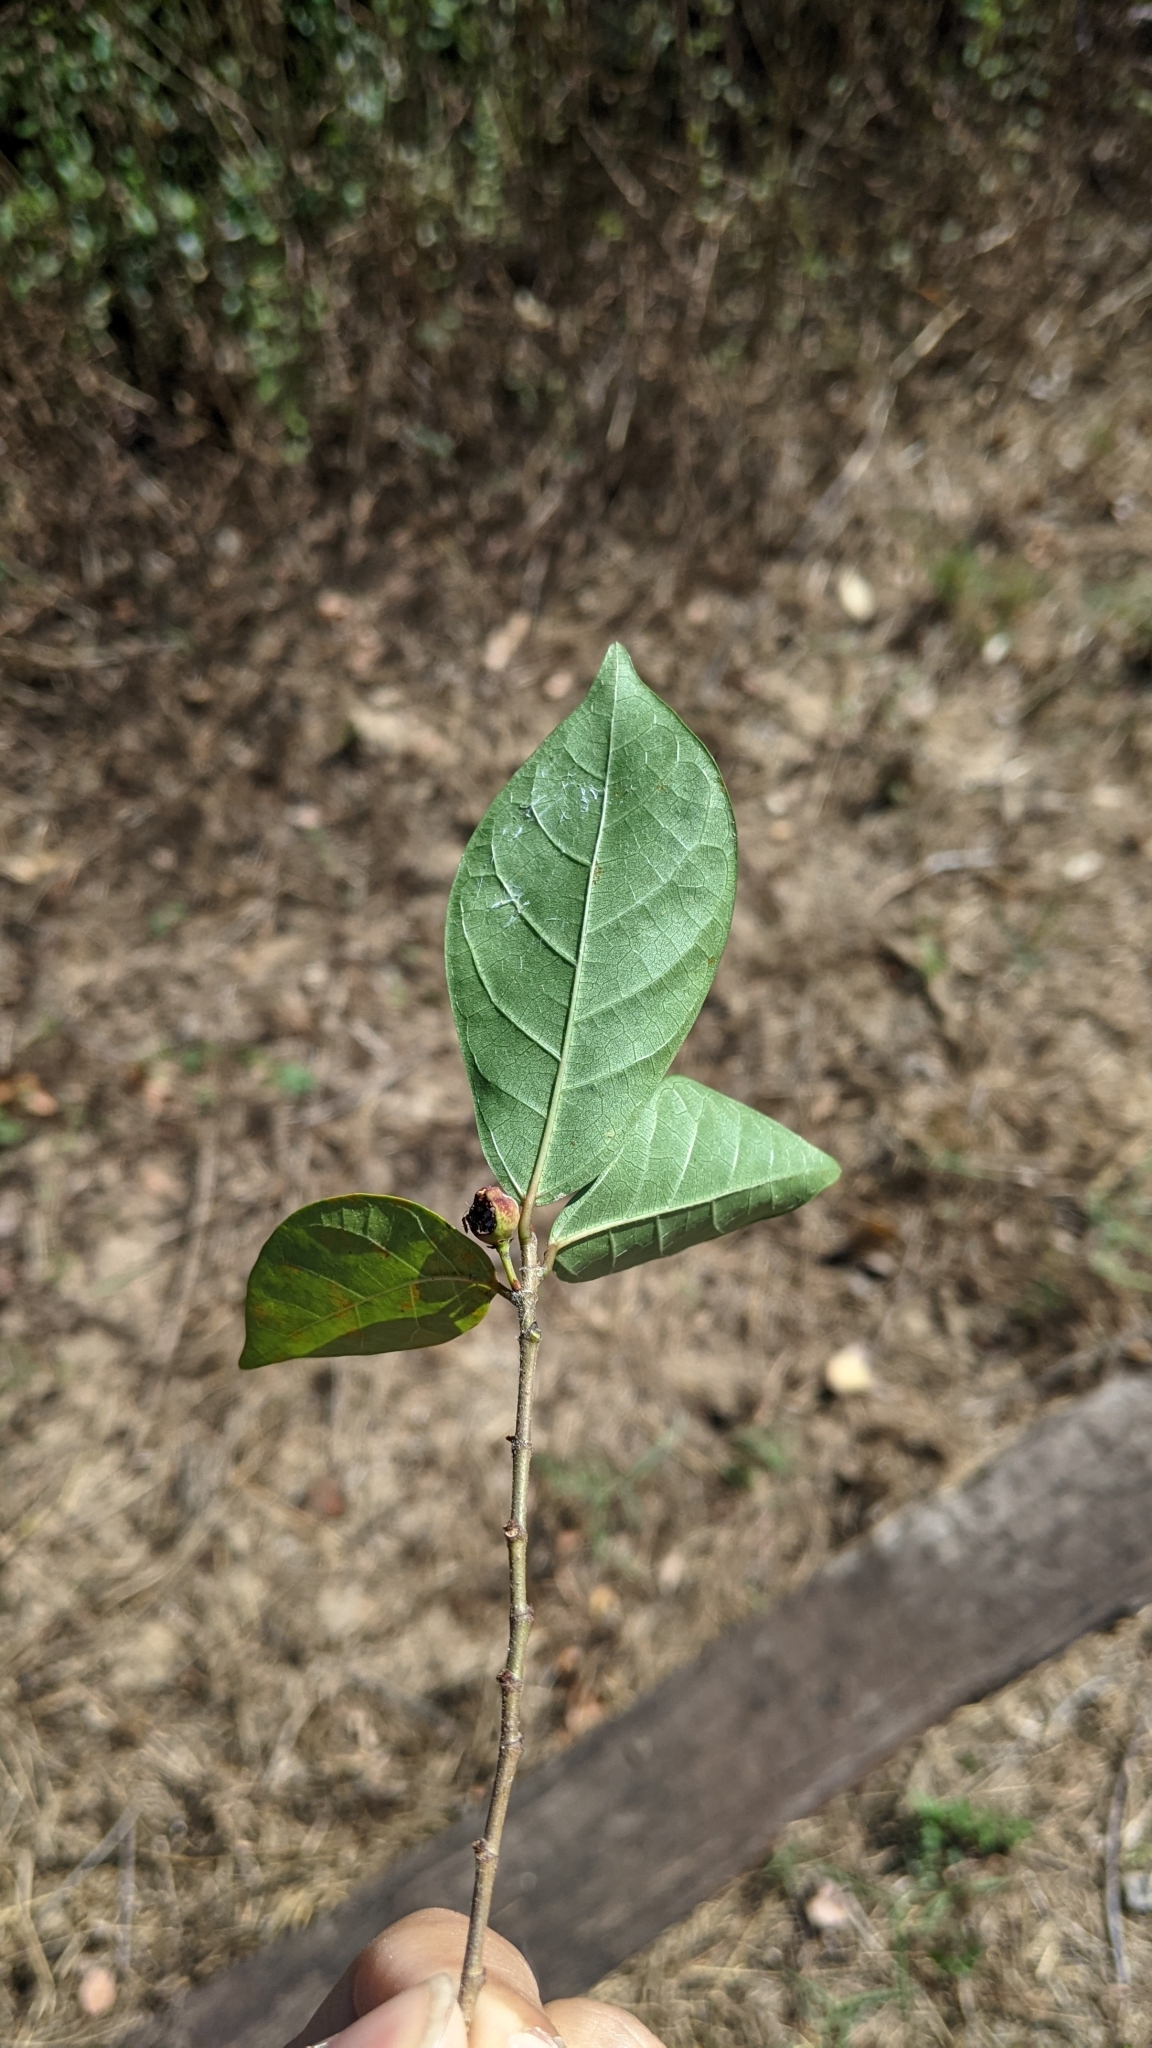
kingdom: Plantae
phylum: Tracheophyta
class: Magnoliopsida
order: Rosales
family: Moraceae
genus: Ficus
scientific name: Ficus pandurata
